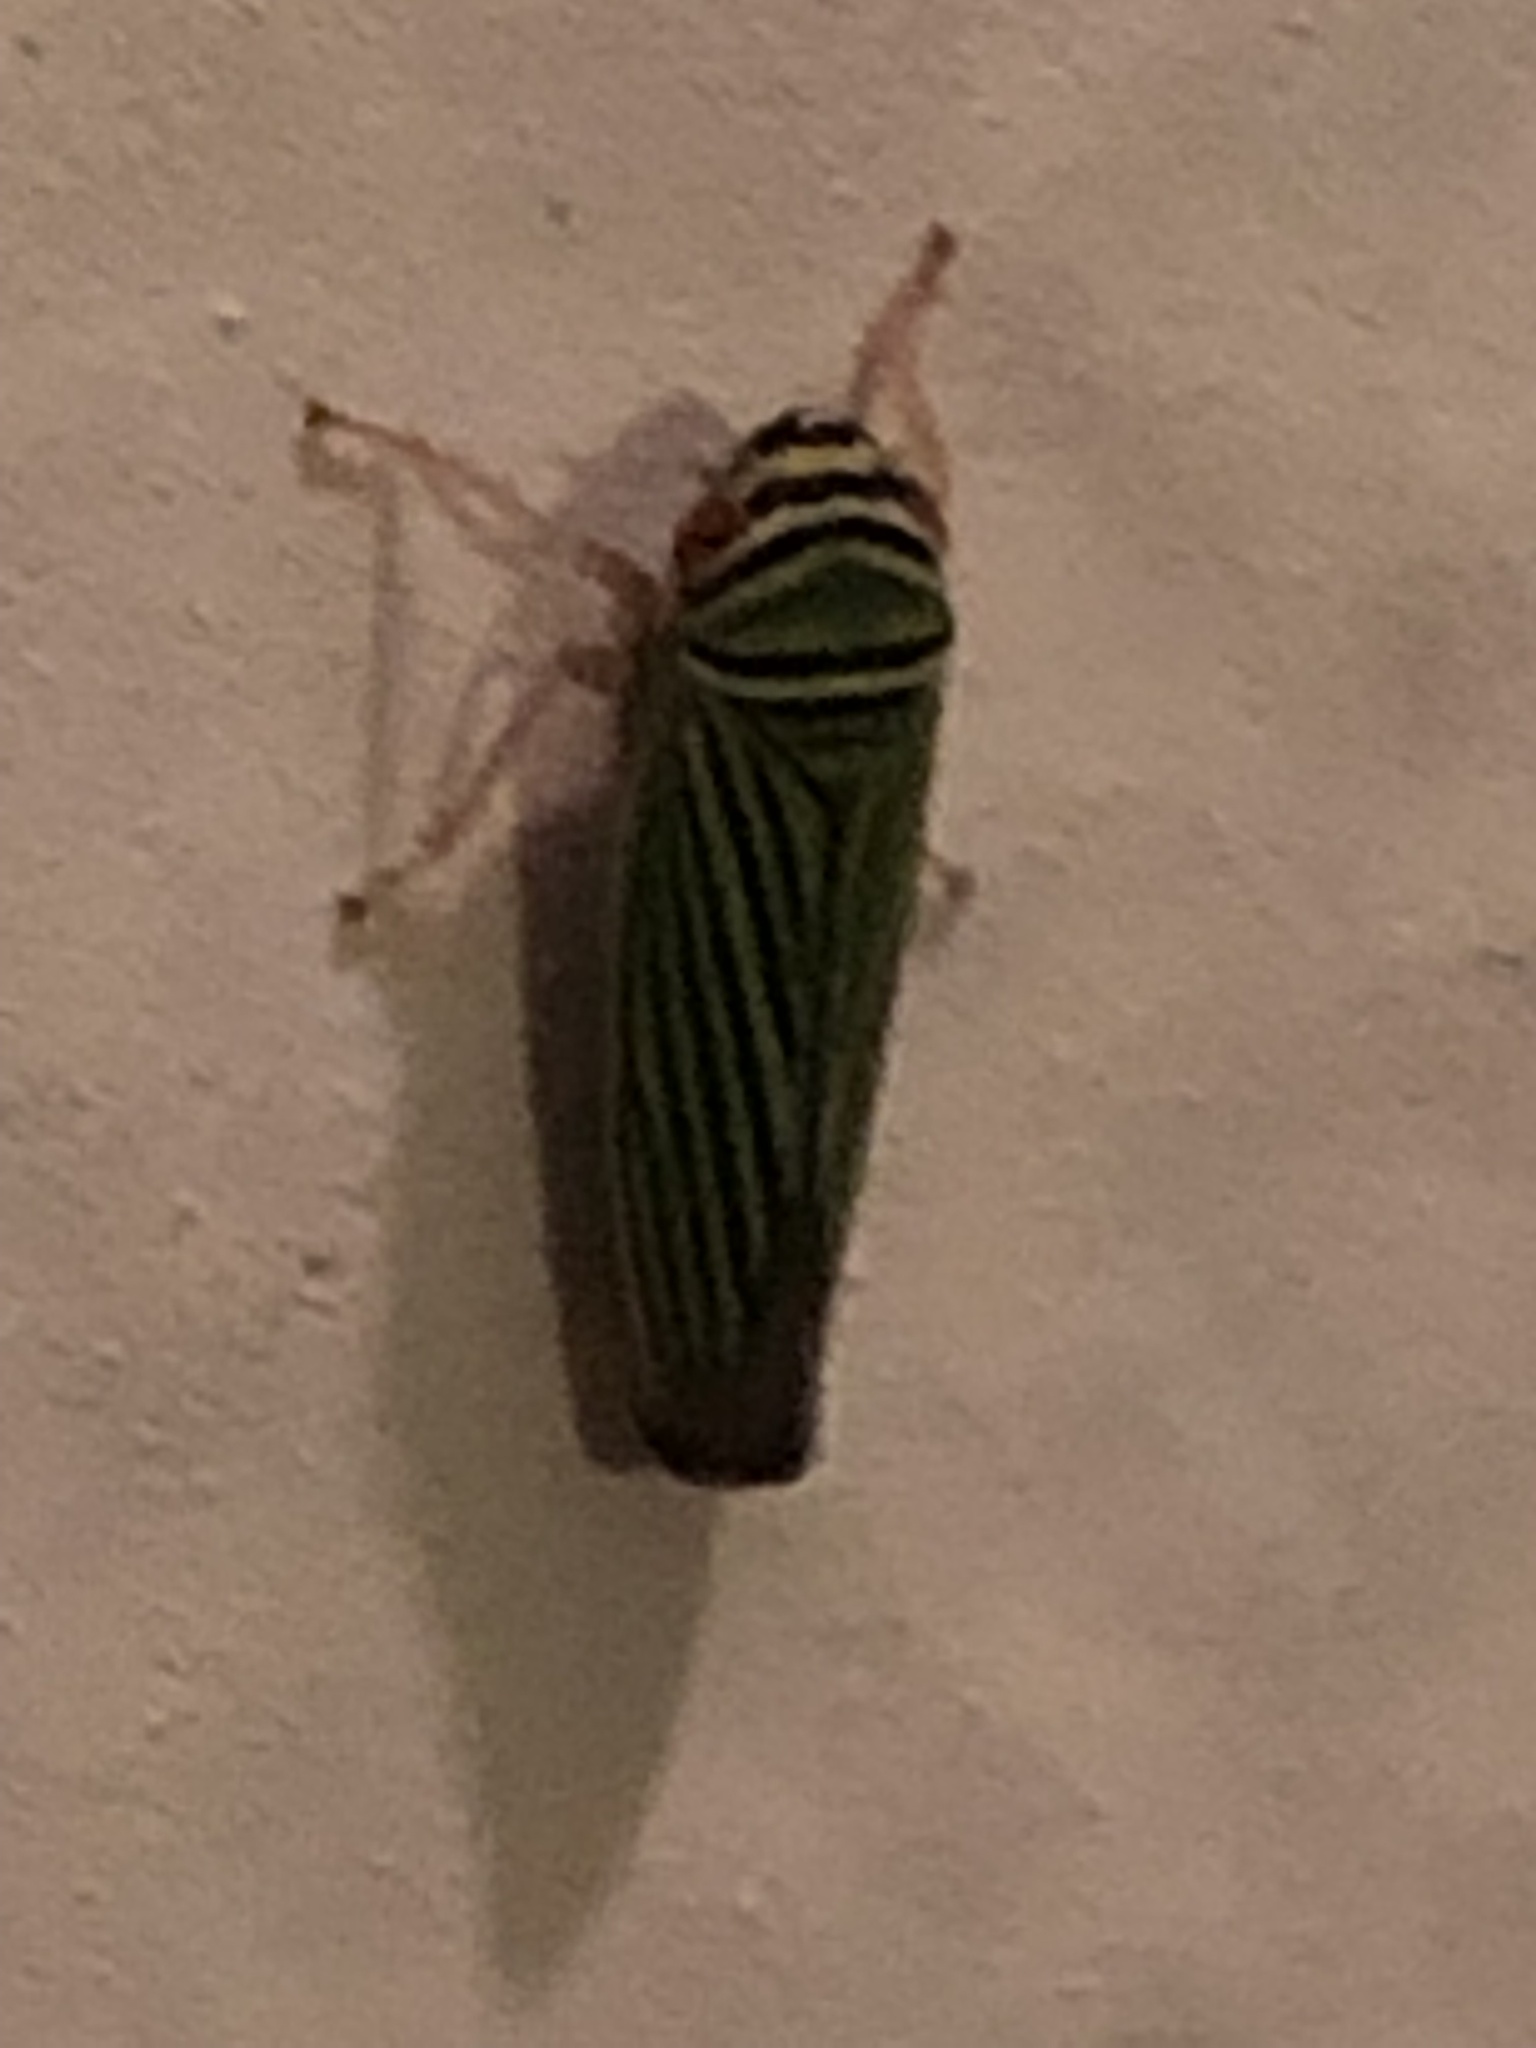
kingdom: Animalia
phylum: Arthropoda
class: Insecta
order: Hemiptera
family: Cicadellidae
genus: Tylozygus
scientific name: Tylozygus bifidus
